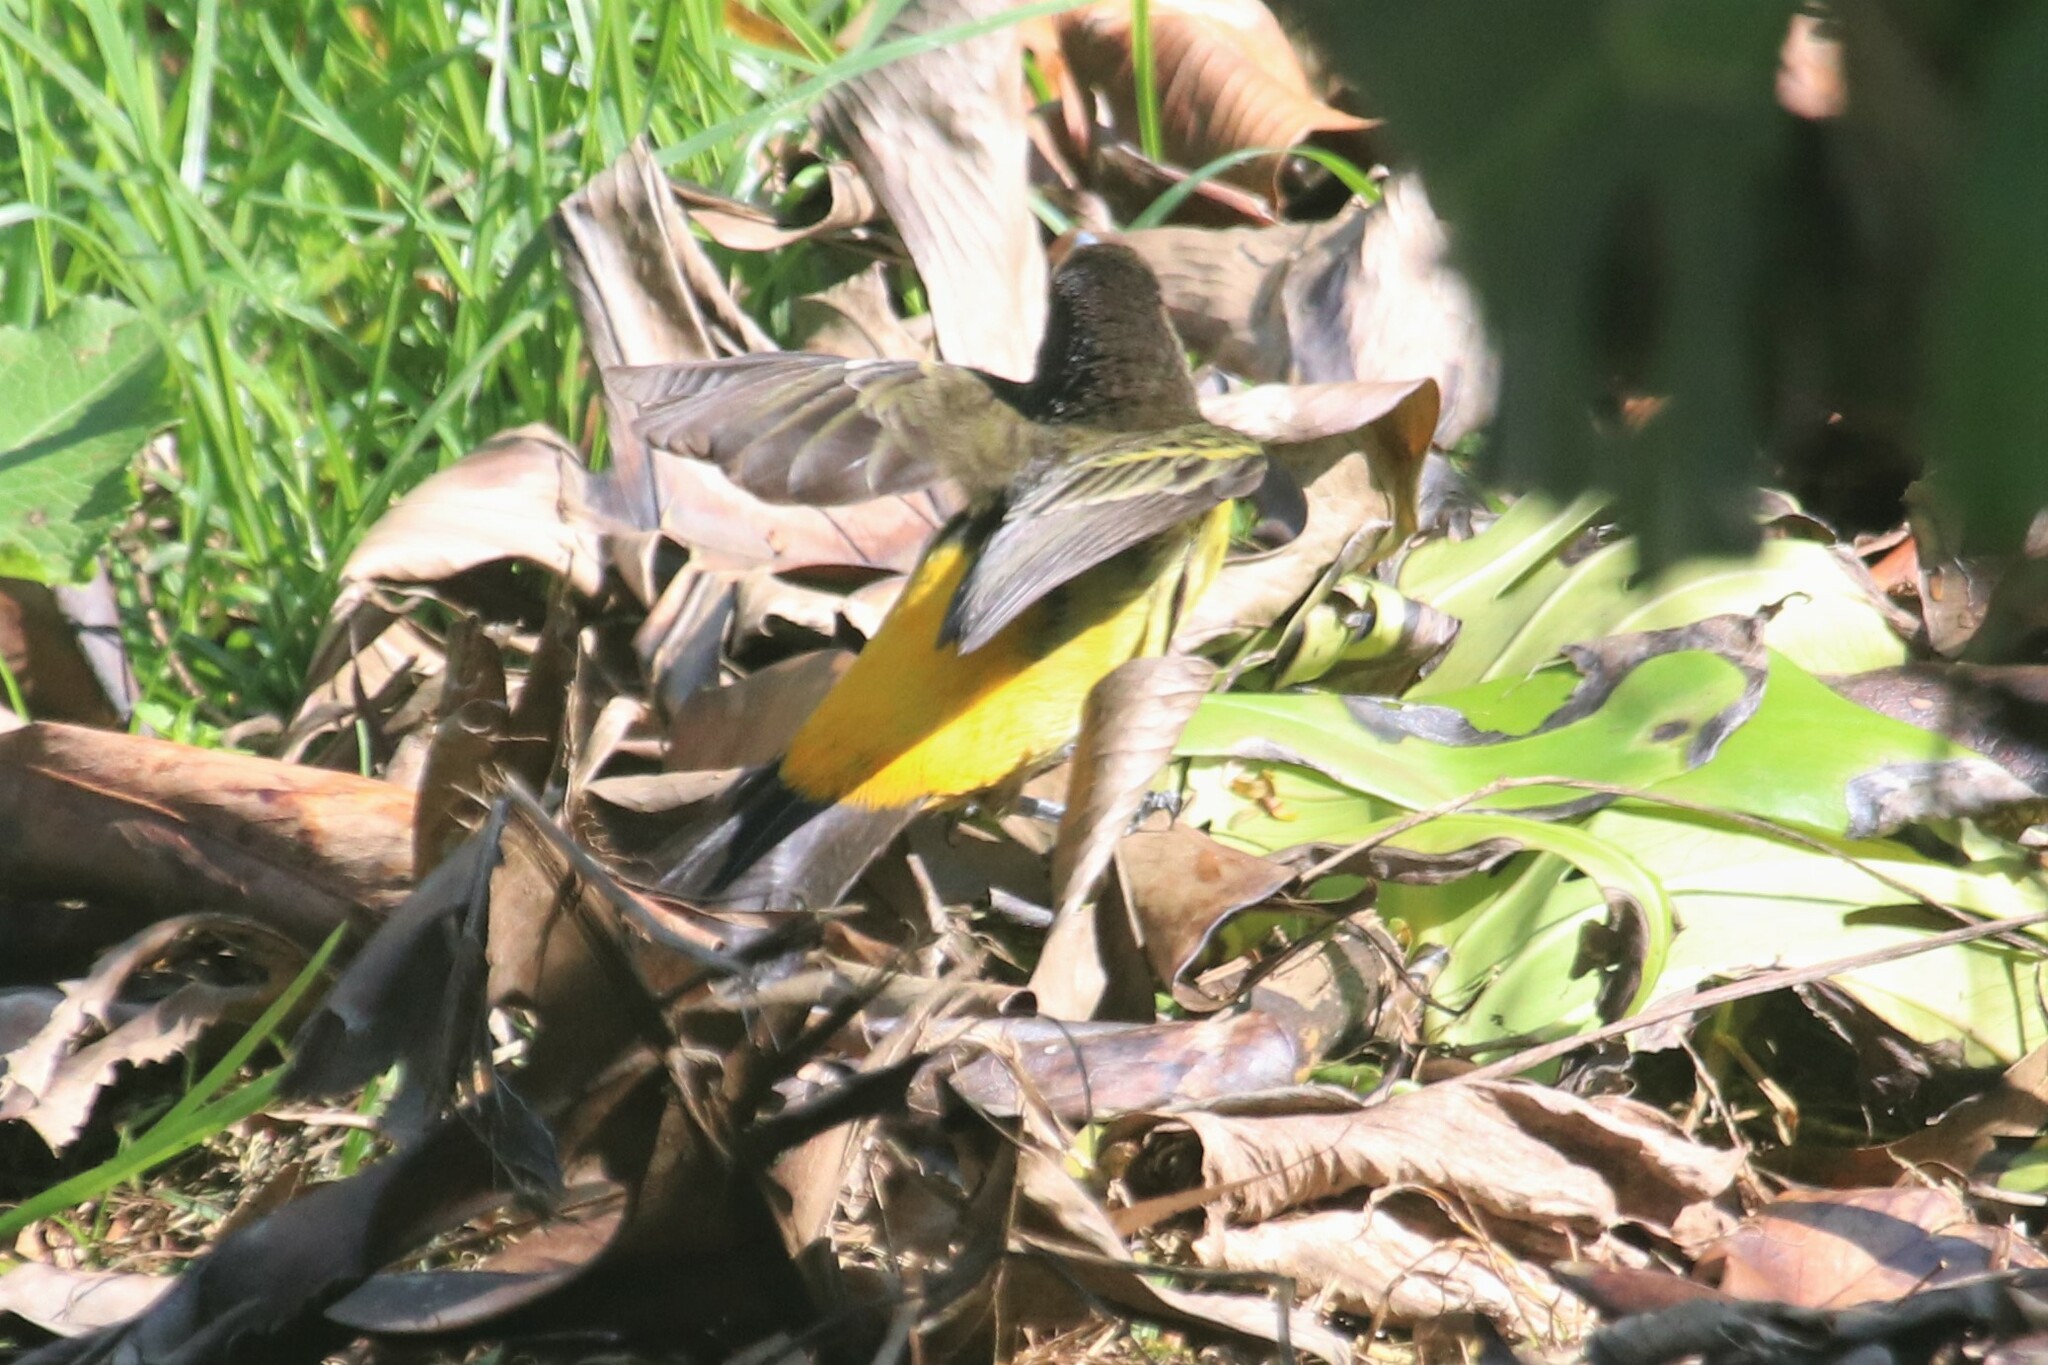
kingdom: Animalia
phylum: Chordata
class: Aves
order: Passeriformes
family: Thraupidae
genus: Ramphocelus
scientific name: Ramphocelus flammigerus
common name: Flame-rumped tanager
